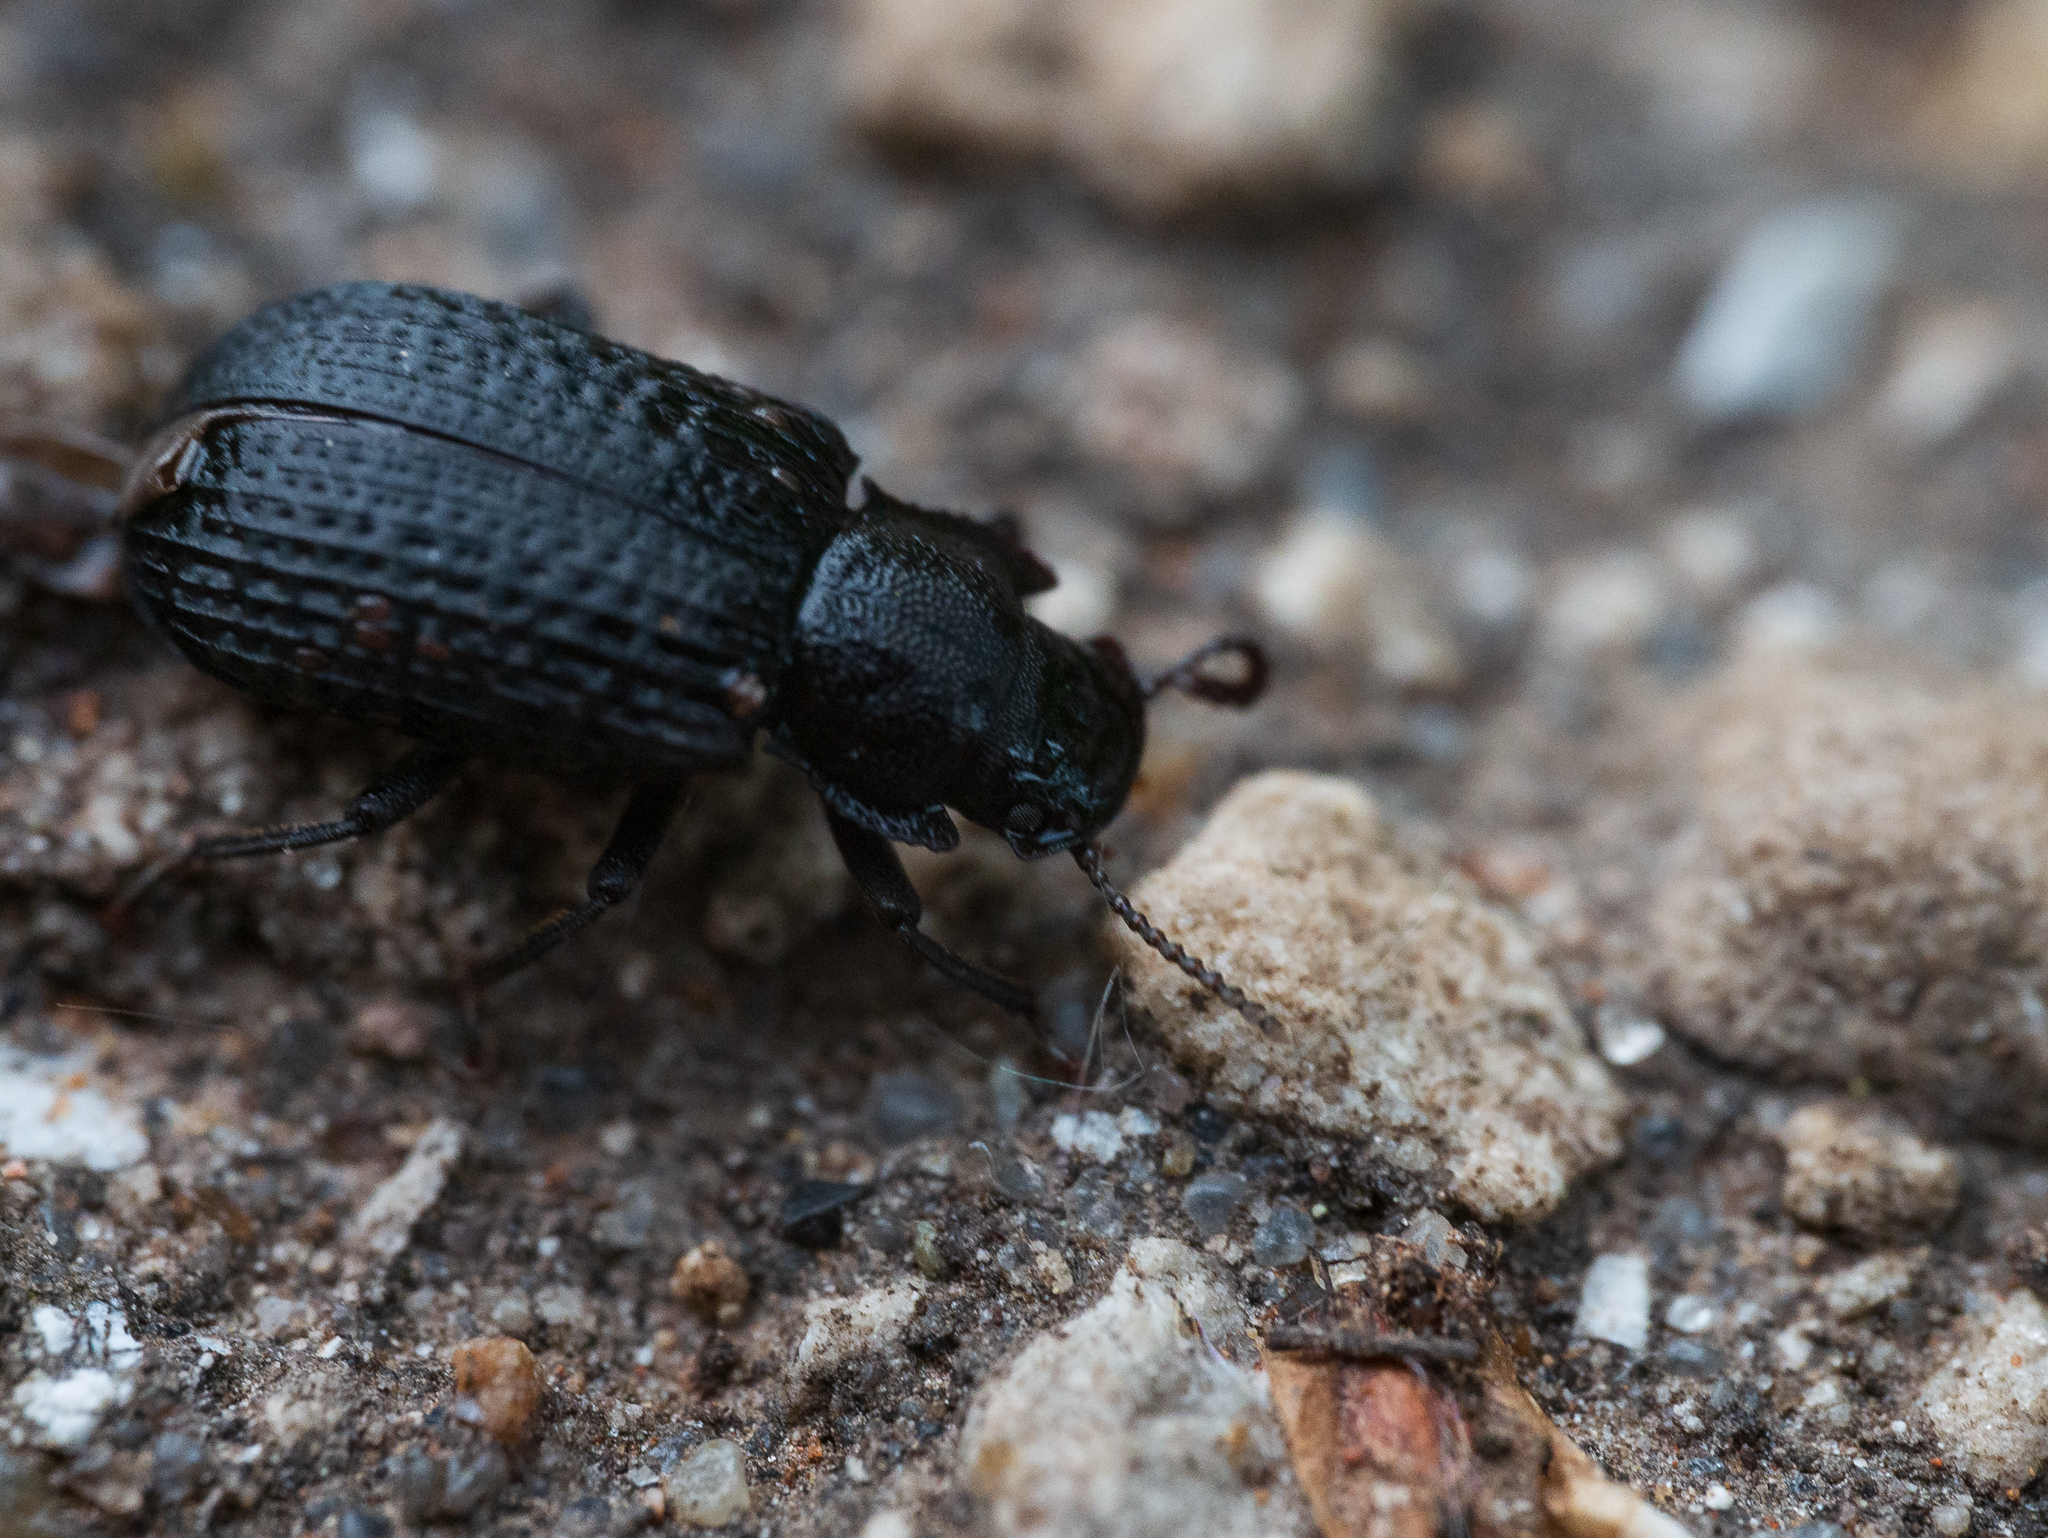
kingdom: Animalia
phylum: Arthropoda
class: Insecta
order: Coleoptera
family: Tenebrionidae
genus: Bolitophagus
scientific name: Bolitophagus reticulatus
